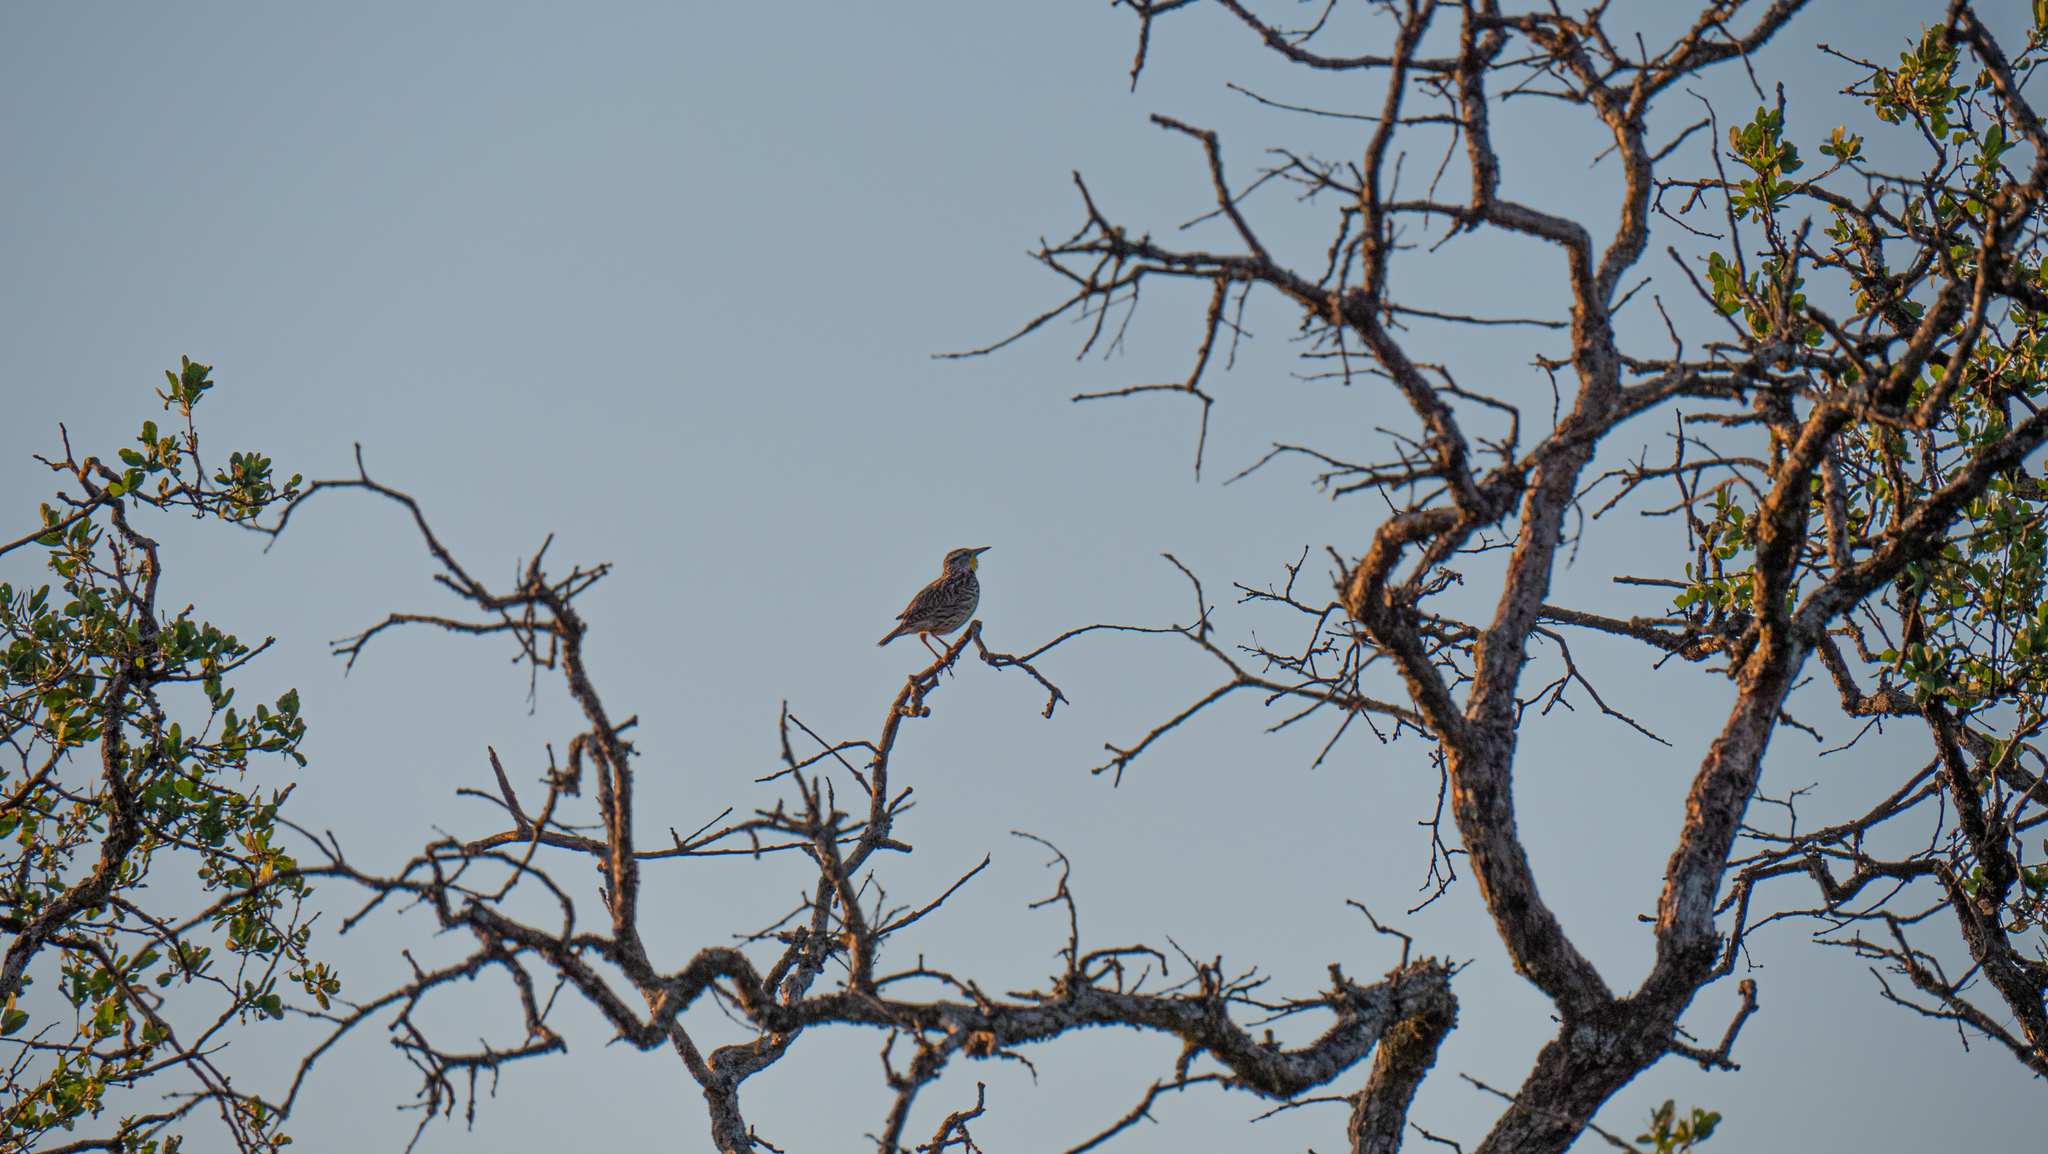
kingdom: Animalia
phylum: Chordata
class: Aves
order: Passeriformes
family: Icteridae
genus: Sturnella
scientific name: Sturnella neglecta
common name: Western meadowlark
